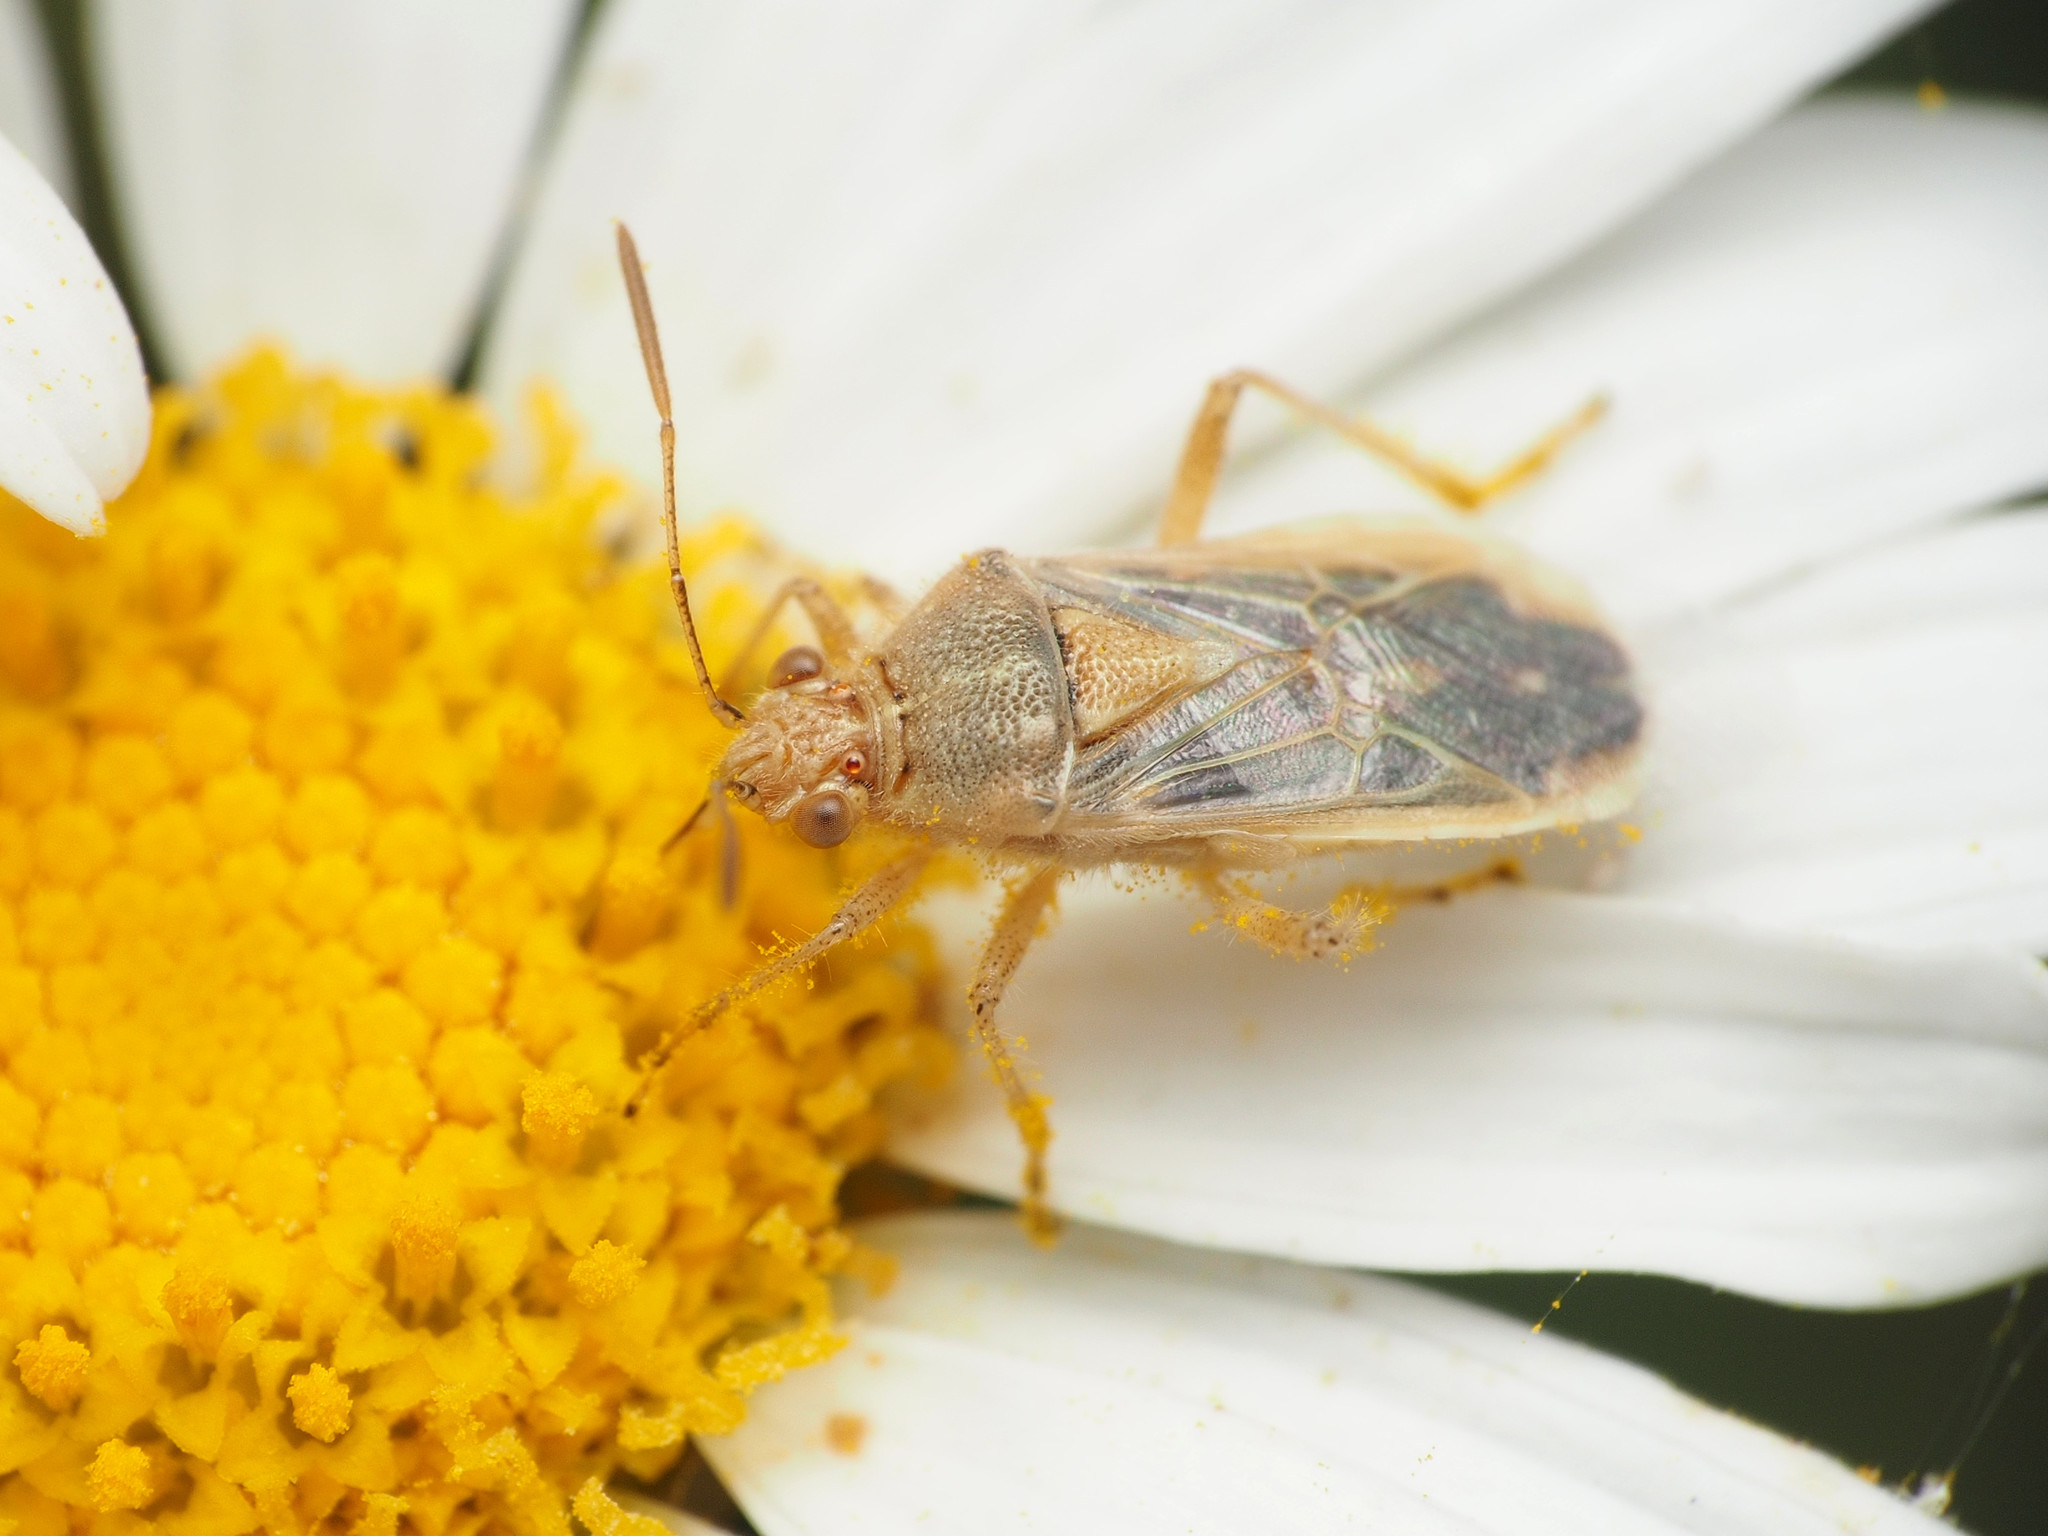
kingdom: Animalia
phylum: Arthropoda
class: Insecta
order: Hemiptera
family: Rhopalidae
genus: Liorhyssus
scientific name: Liorhyssus hyalinus
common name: Scentless plant bug
